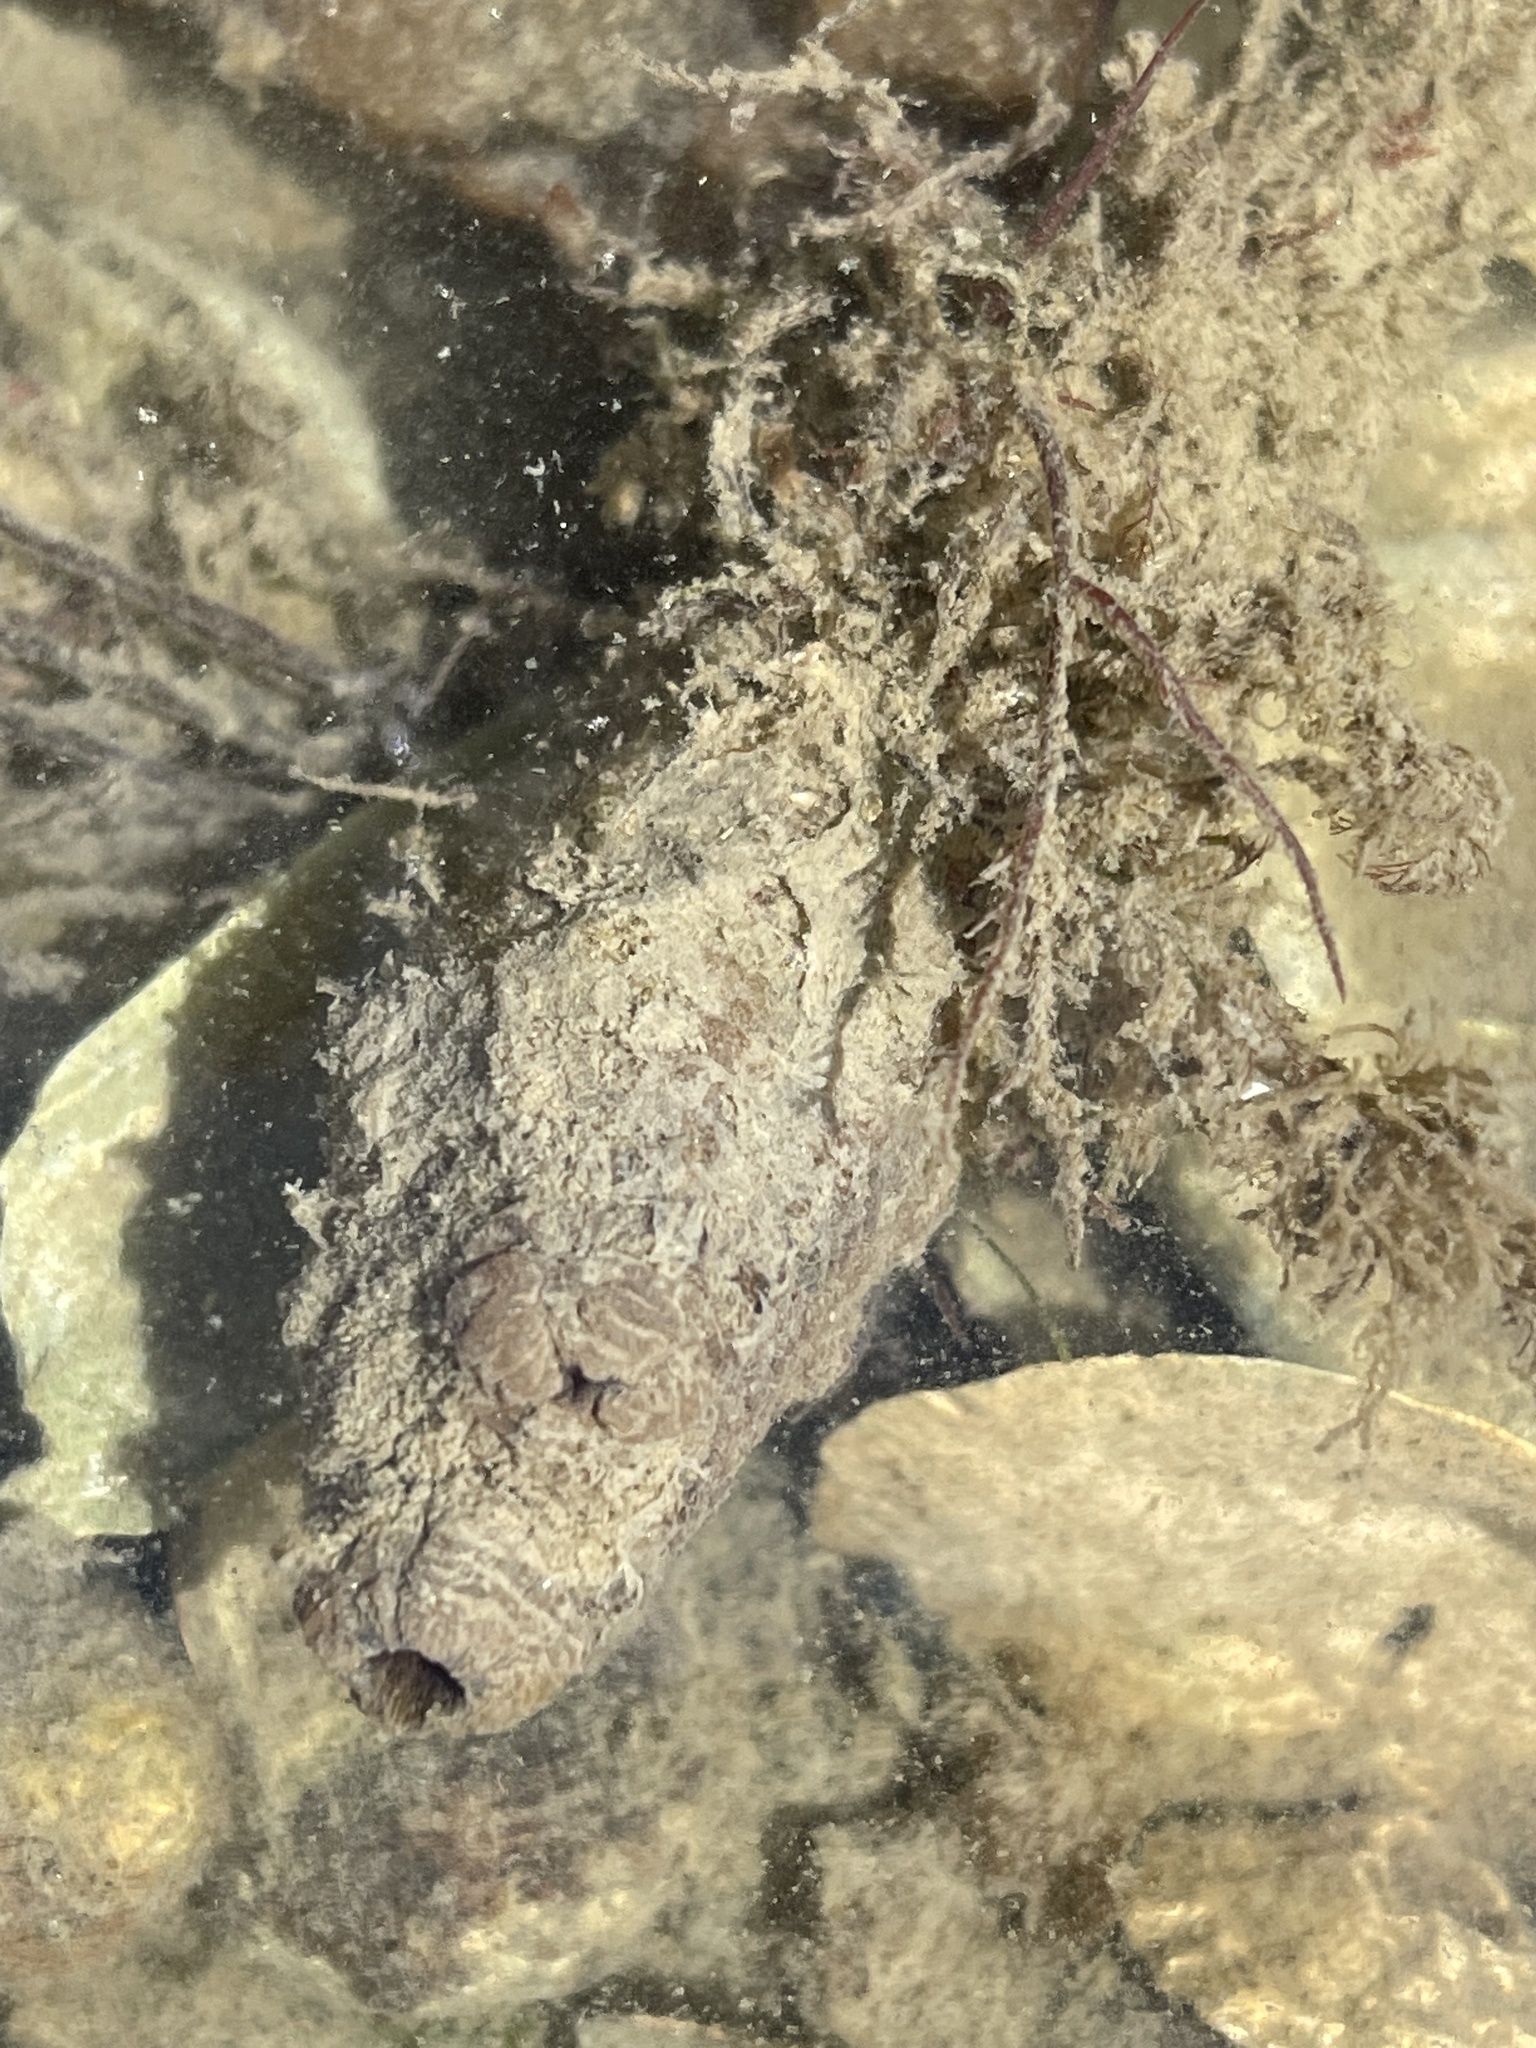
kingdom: Animalia
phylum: Chordata
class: Ascidiacea
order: Stolidobranchia
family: Styelidae
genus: Styela
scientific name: Styela clava
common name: Leathery sea squirt
